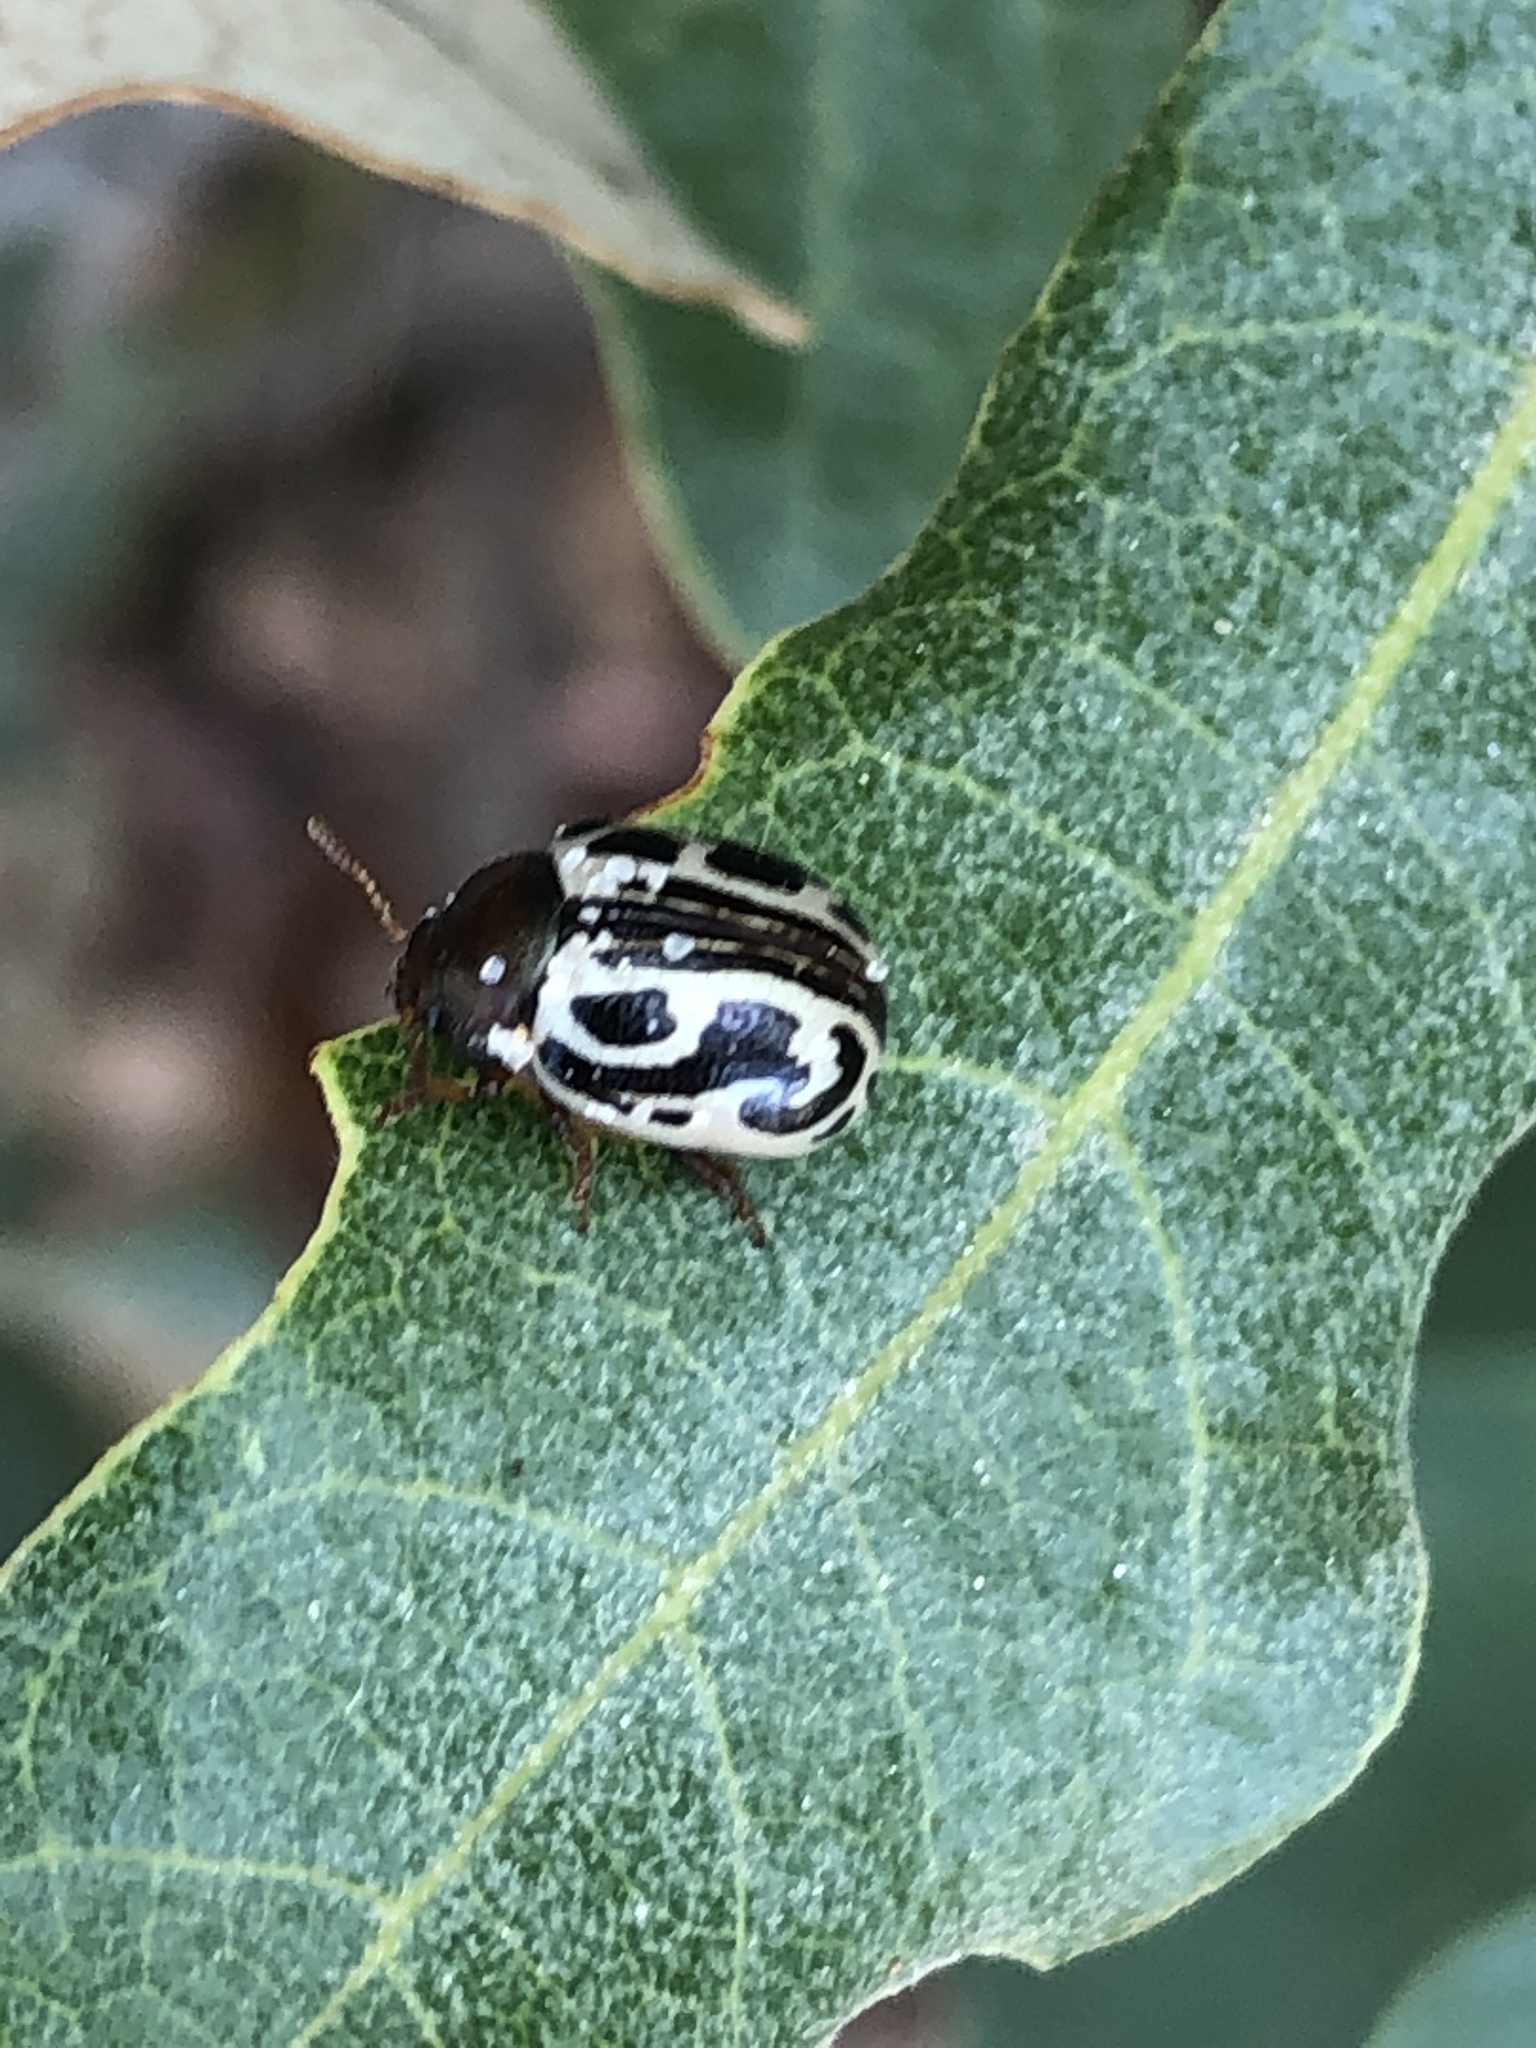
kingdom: Animalia
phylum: Arthropoda
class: Insecta
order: Coleoptera
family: Chrysomelidae
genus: Calligrapha
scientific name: Calligrapha
